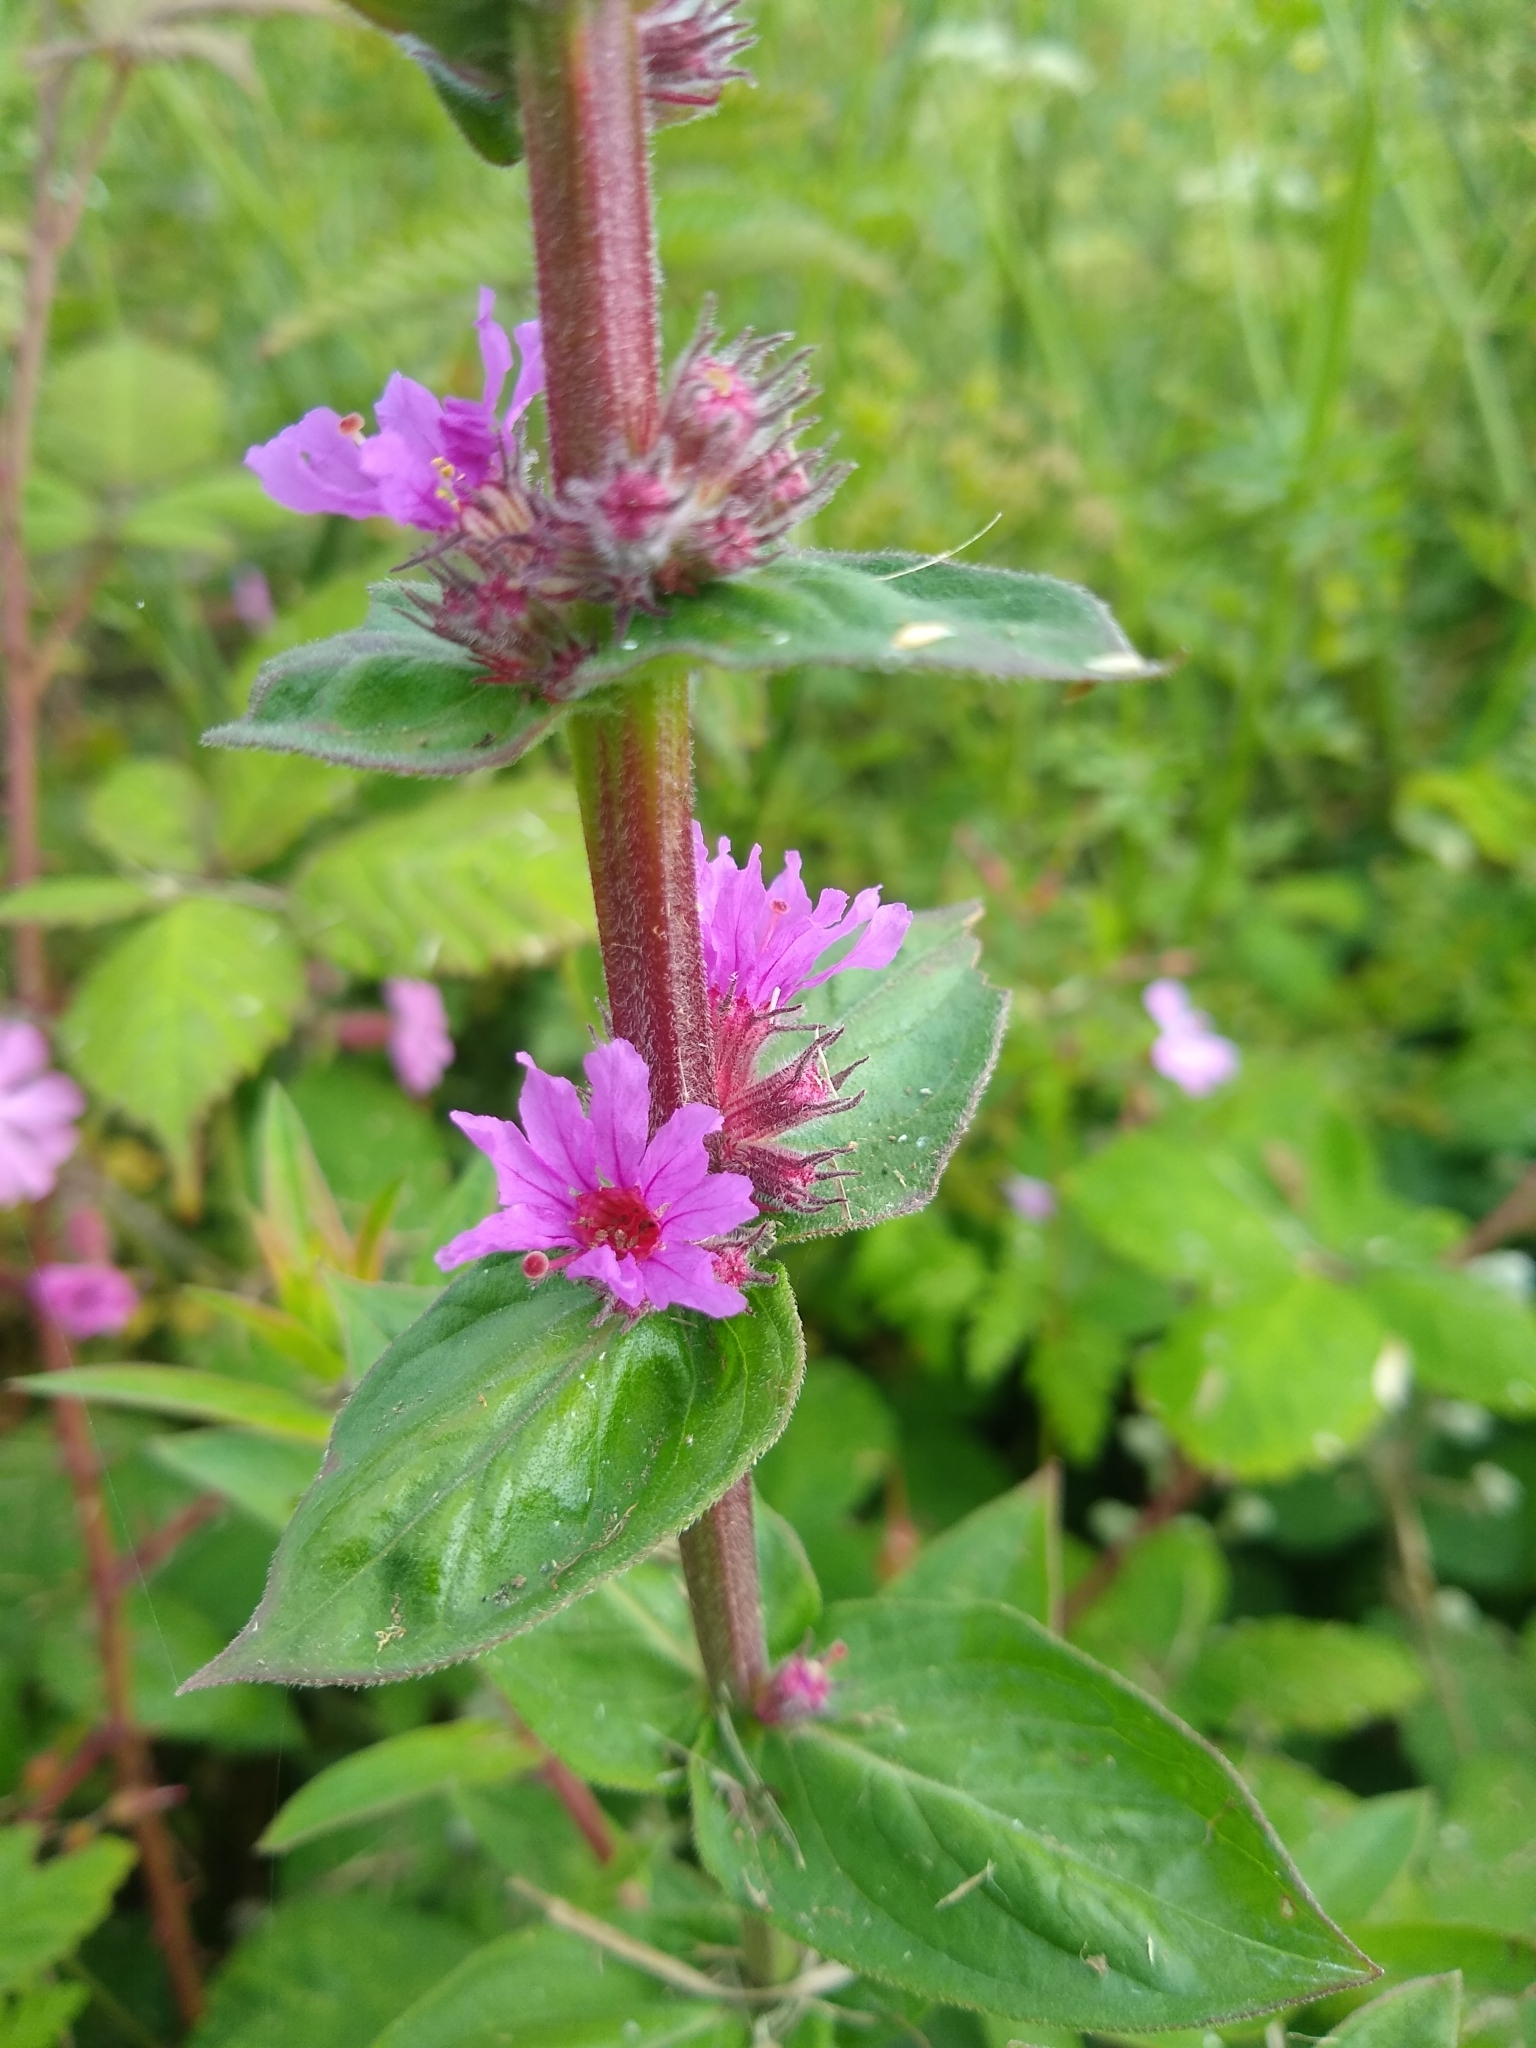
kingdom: Plantae
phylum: Tracheophyta
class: Magnoliopsida
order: Myrtales
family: Lythraceae
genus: Lythrum
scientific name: Lythrum salicaria
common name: Purple loosestrife
